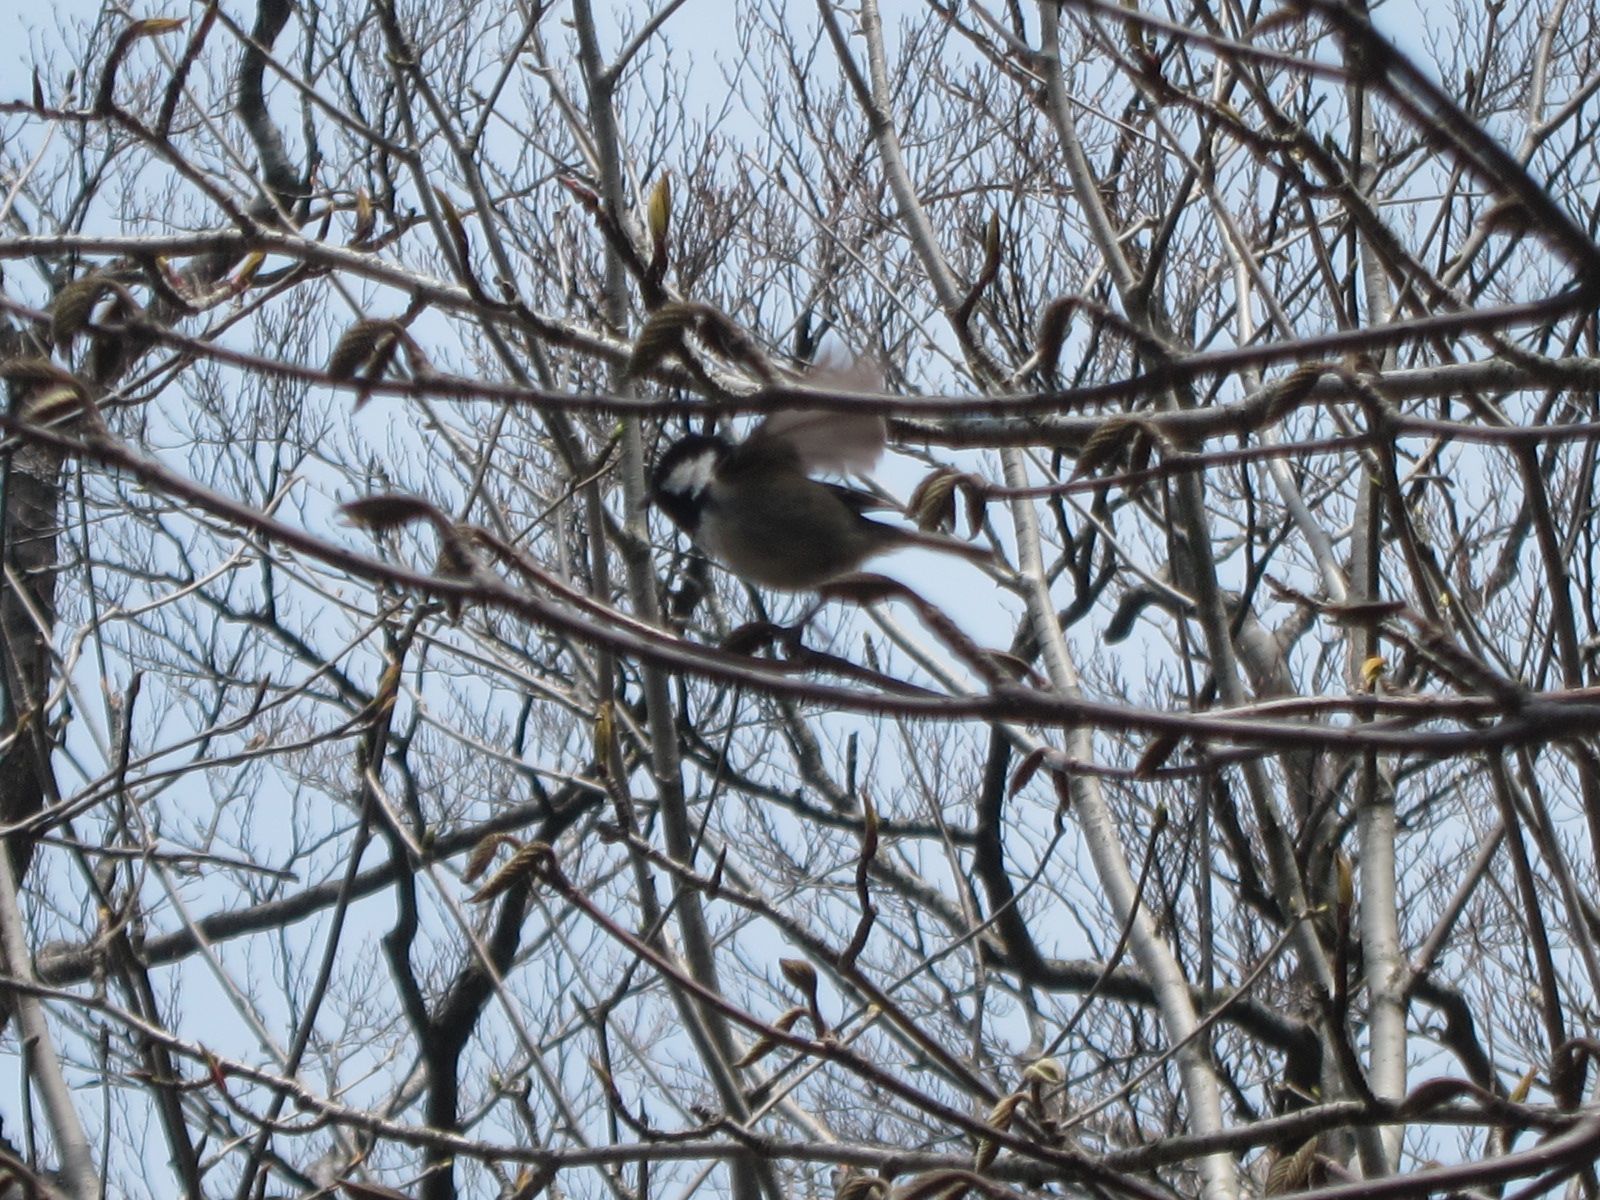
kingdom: Animalia
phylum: Chordata
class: Aves
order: Passeriformes
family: Paridae
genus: Periparus
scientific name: Periparus ater
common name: Coal tit
